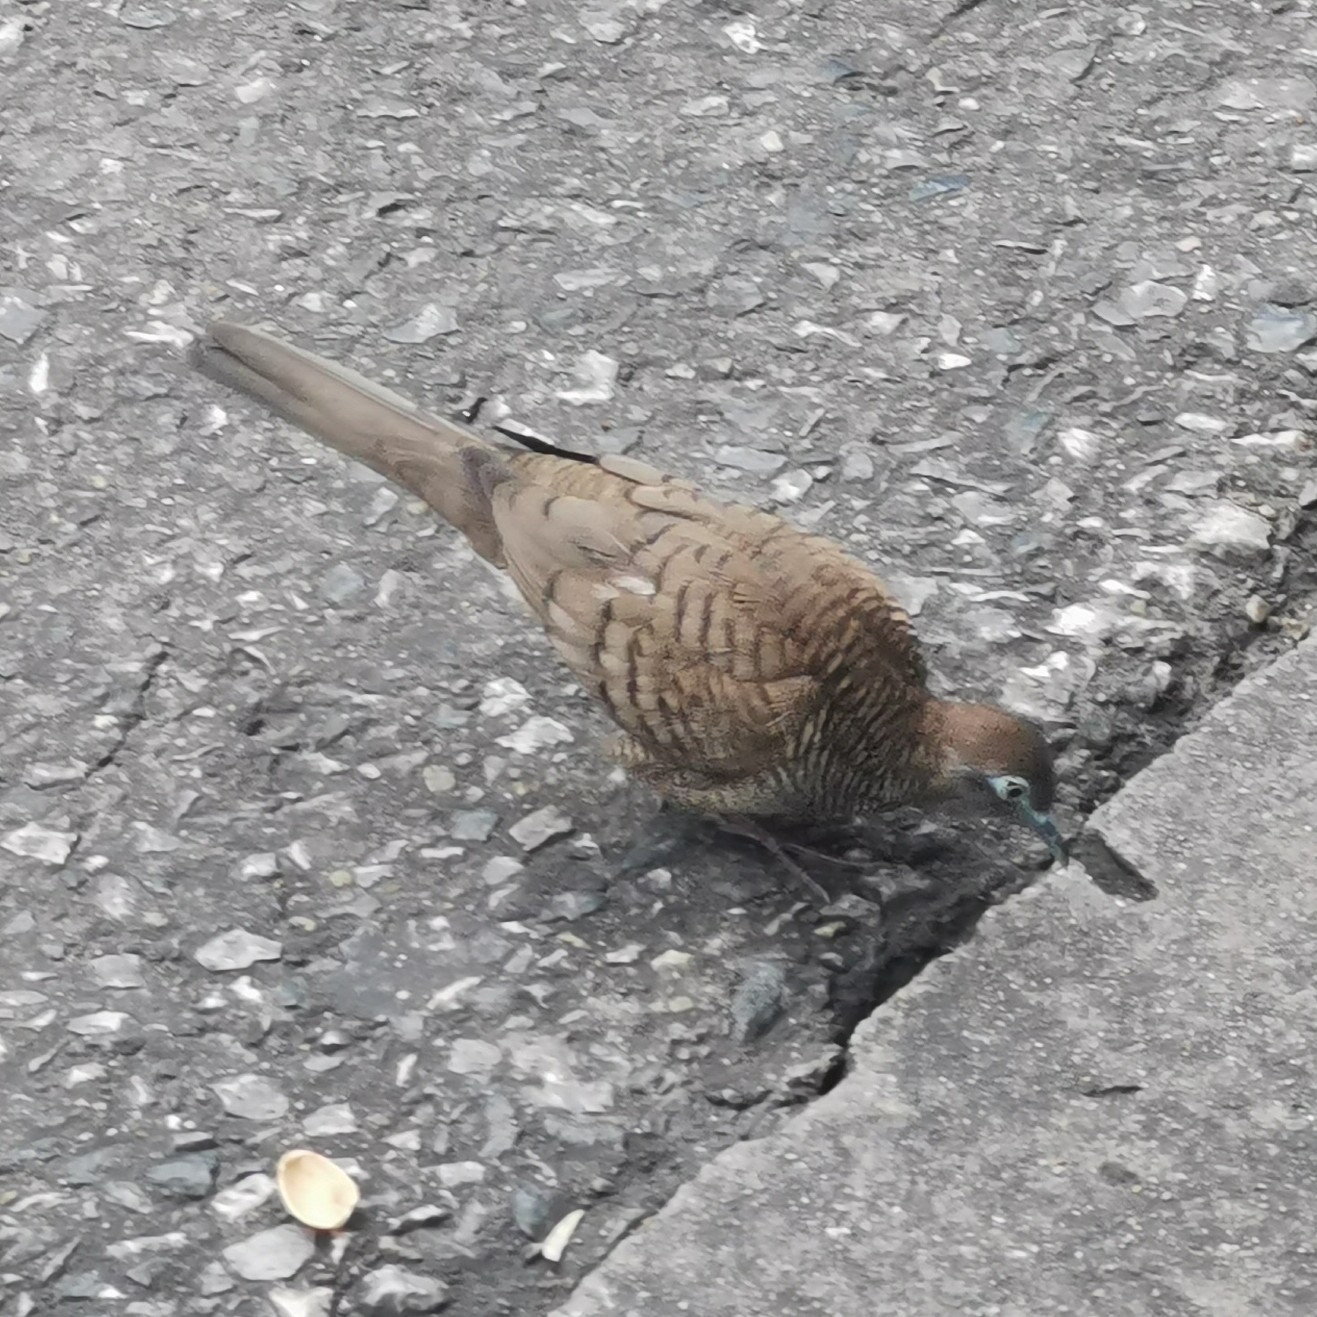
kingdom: Animalia
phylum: Chordata
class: Aves
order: Columbiformes
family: Columbidae
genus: Geopelia
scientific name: Geopelia striata
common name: Zebra dove
